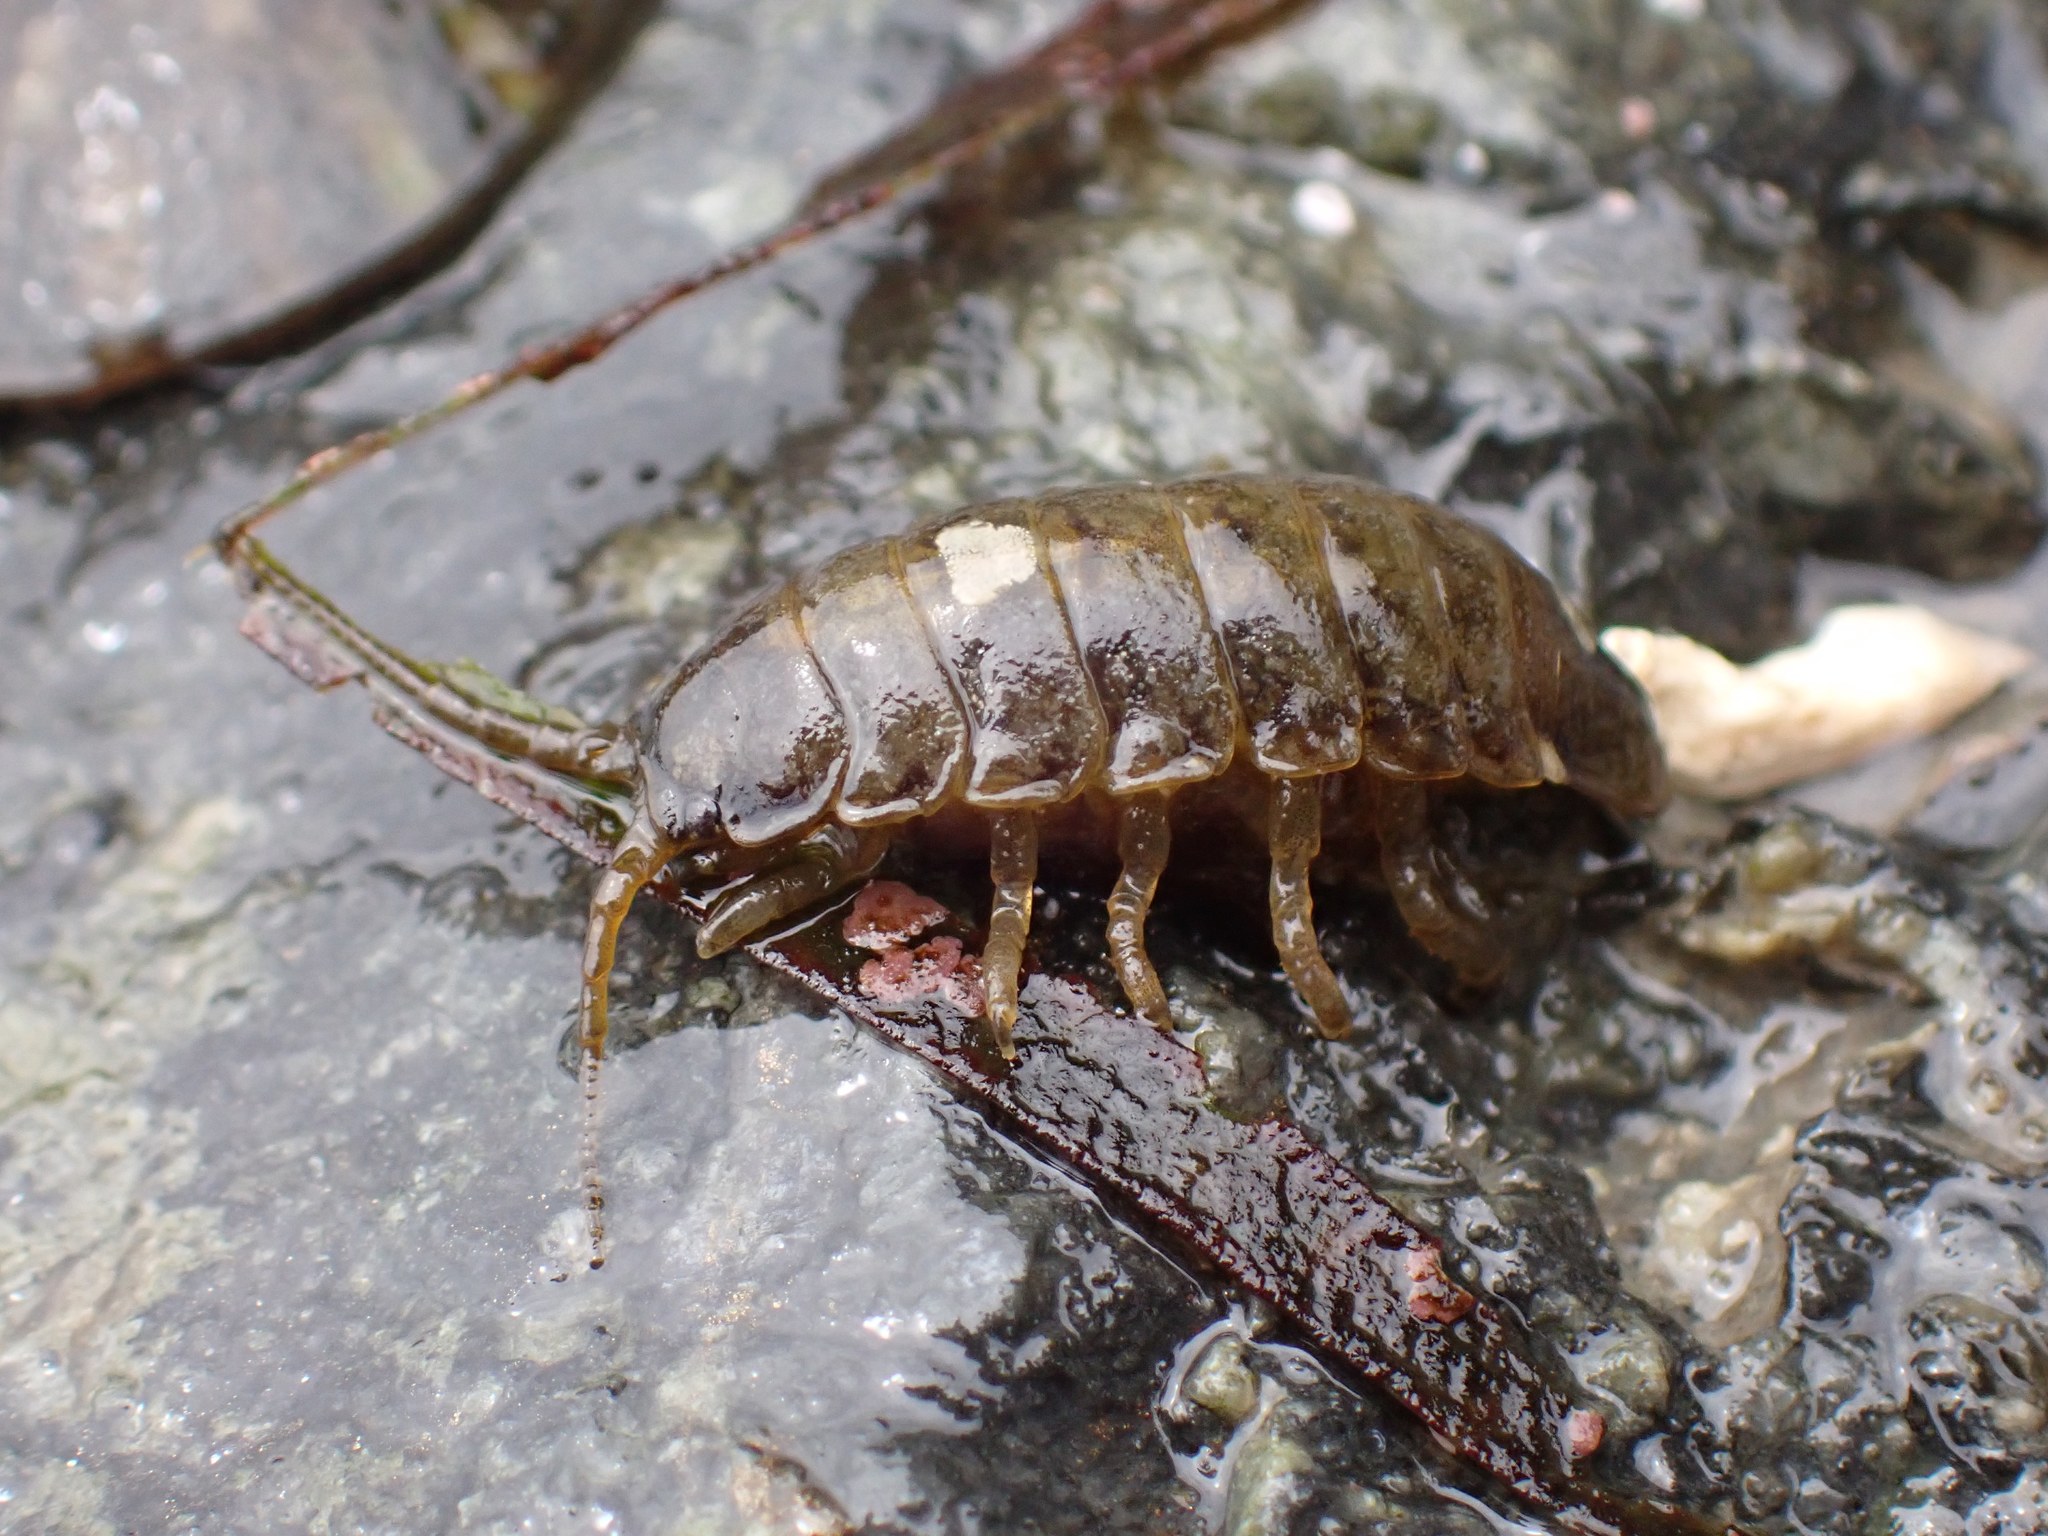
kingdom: Animalia
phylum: Arthropoda
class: Malacostraca
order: Isopoda
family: Idoteidae
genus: Pentidotea
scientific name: Pentidotea wosnesenskii
